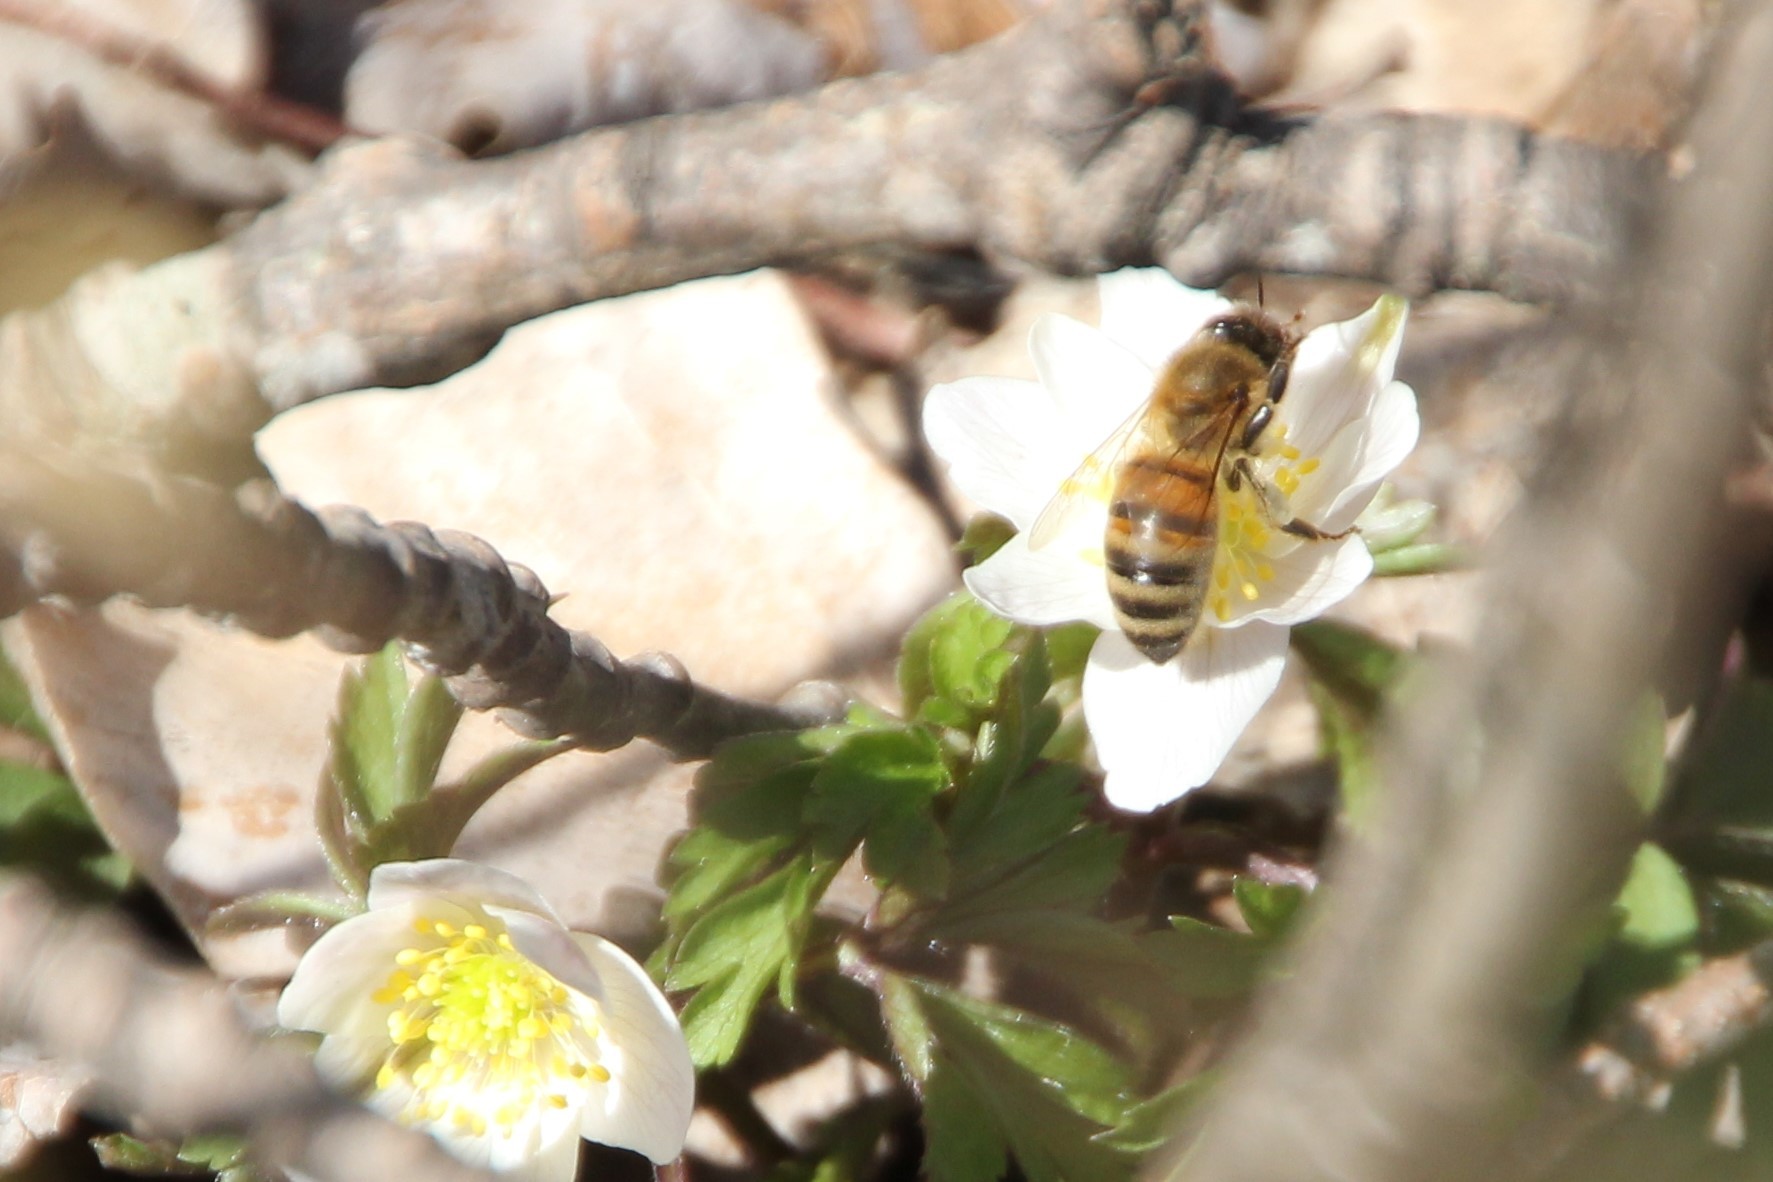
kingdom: Animalia
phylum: Arthropoda
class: Insecta
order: Hymenoptera
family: Apidae
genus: Apis
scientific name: Apis mellifera
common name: Honey bee
